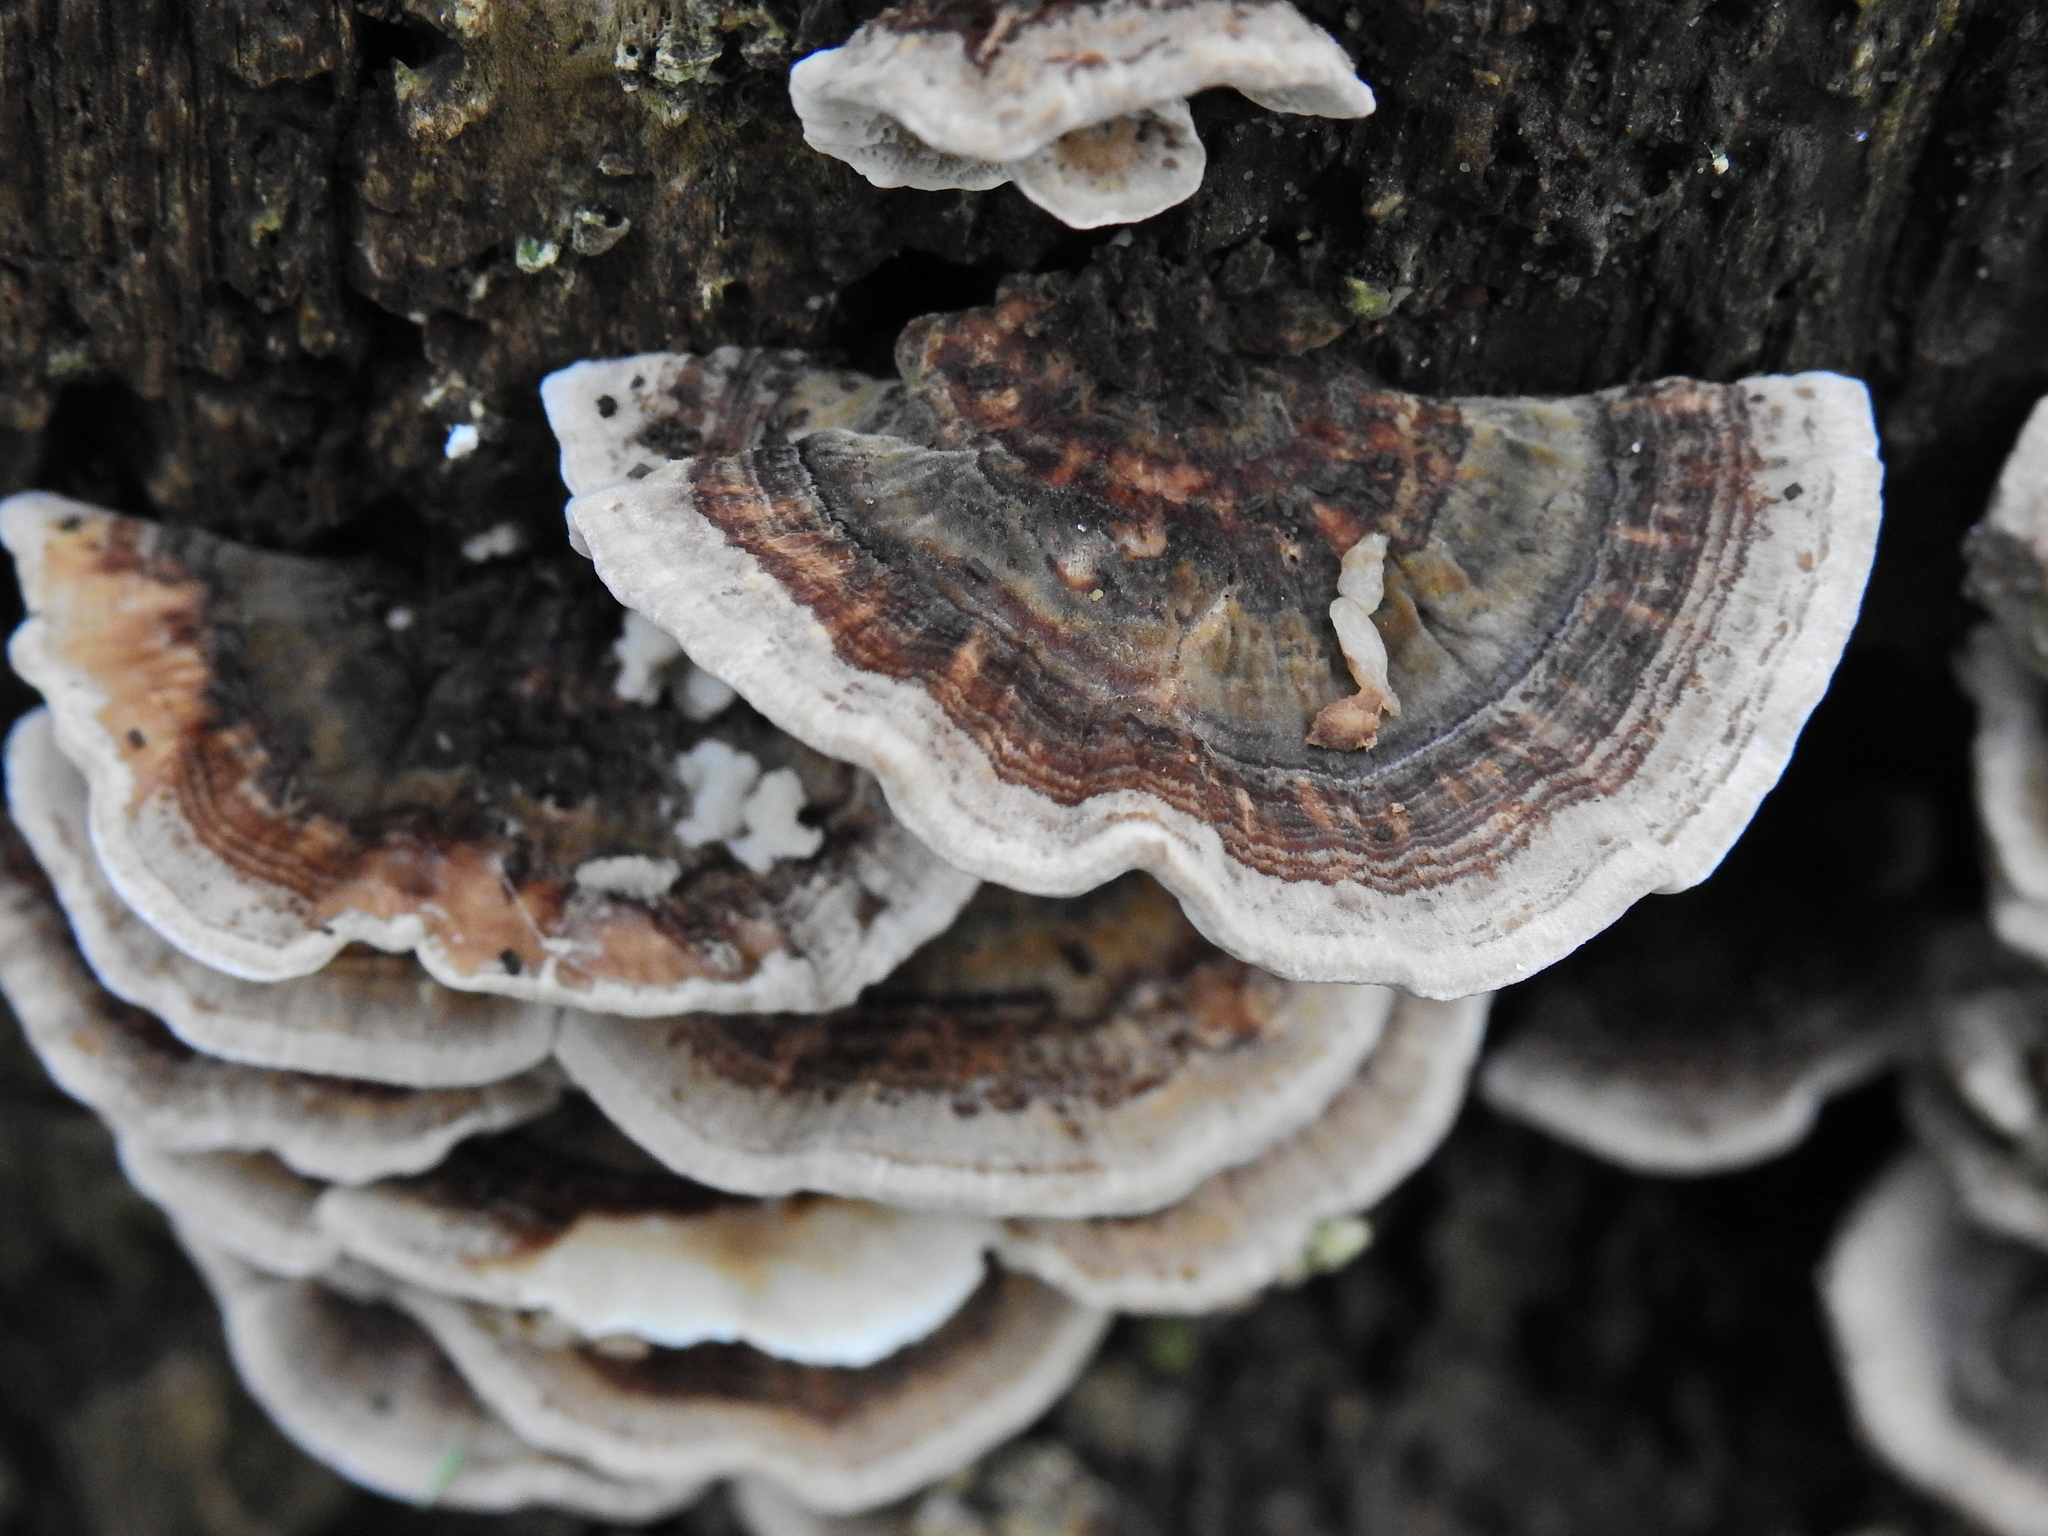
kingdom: Fungi
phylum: Basidiomycota
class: Agaricomycetes
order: Polyporales
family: Polyporaceae
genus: Trametes
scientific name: Trametes versicolor
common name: Turkeytail
